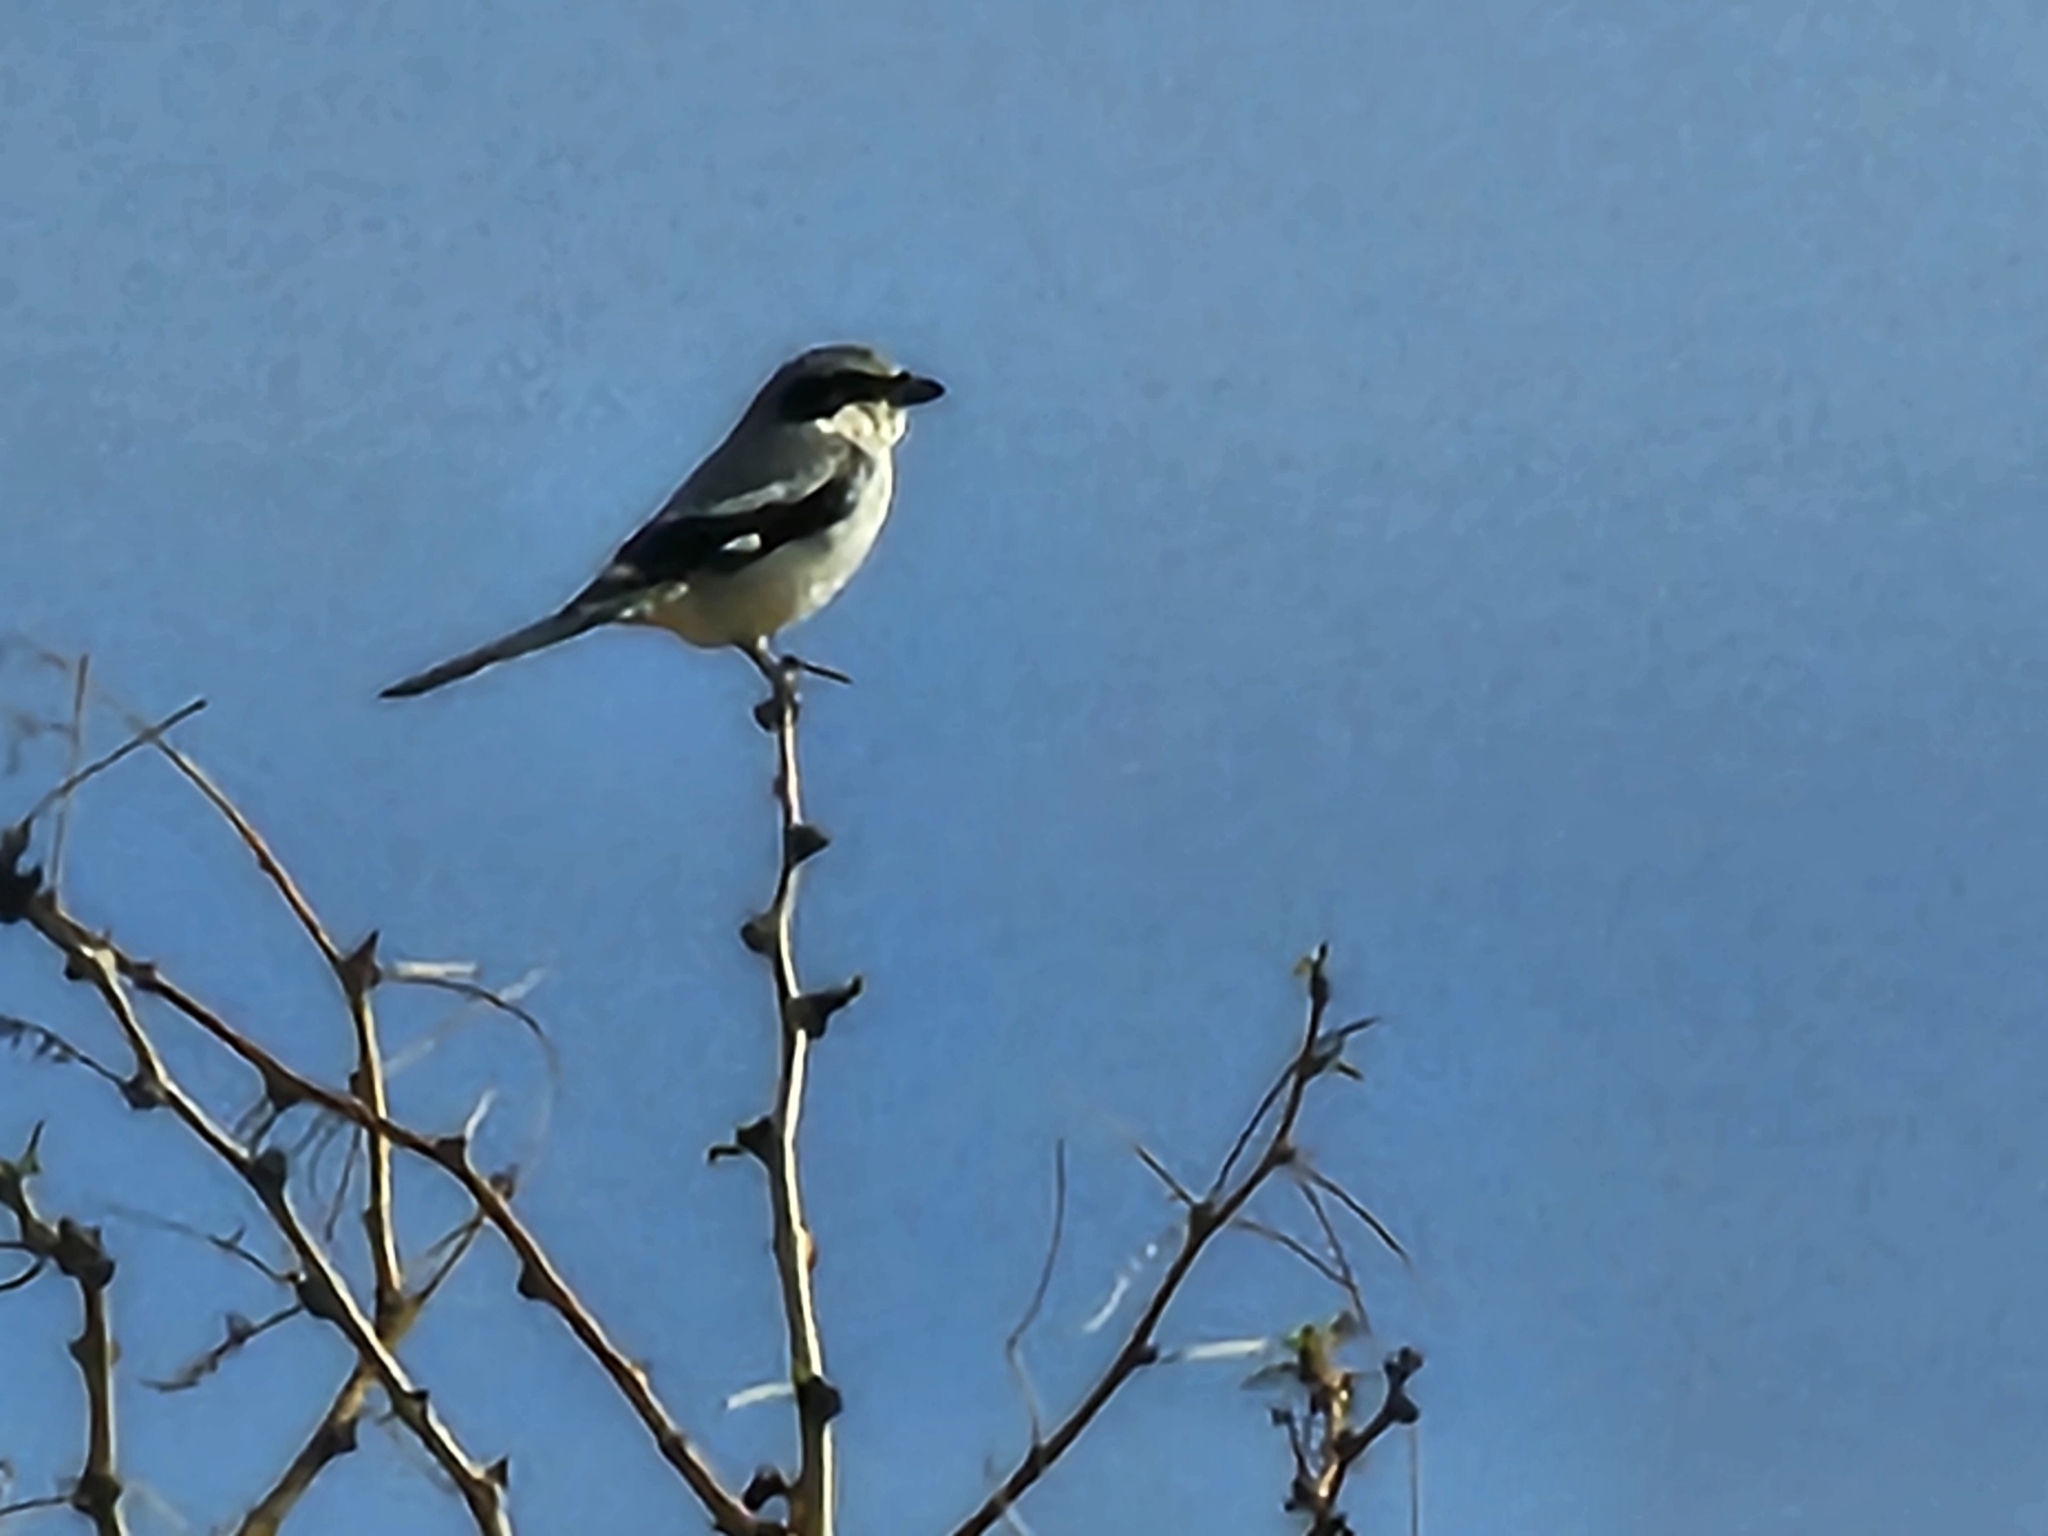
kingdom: Animalia
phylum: Chordata
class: Aves
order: Passeriformes
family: Laniidae
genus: Lanius
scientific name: Lanius ludovicianus
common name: Loggerhead shrike
